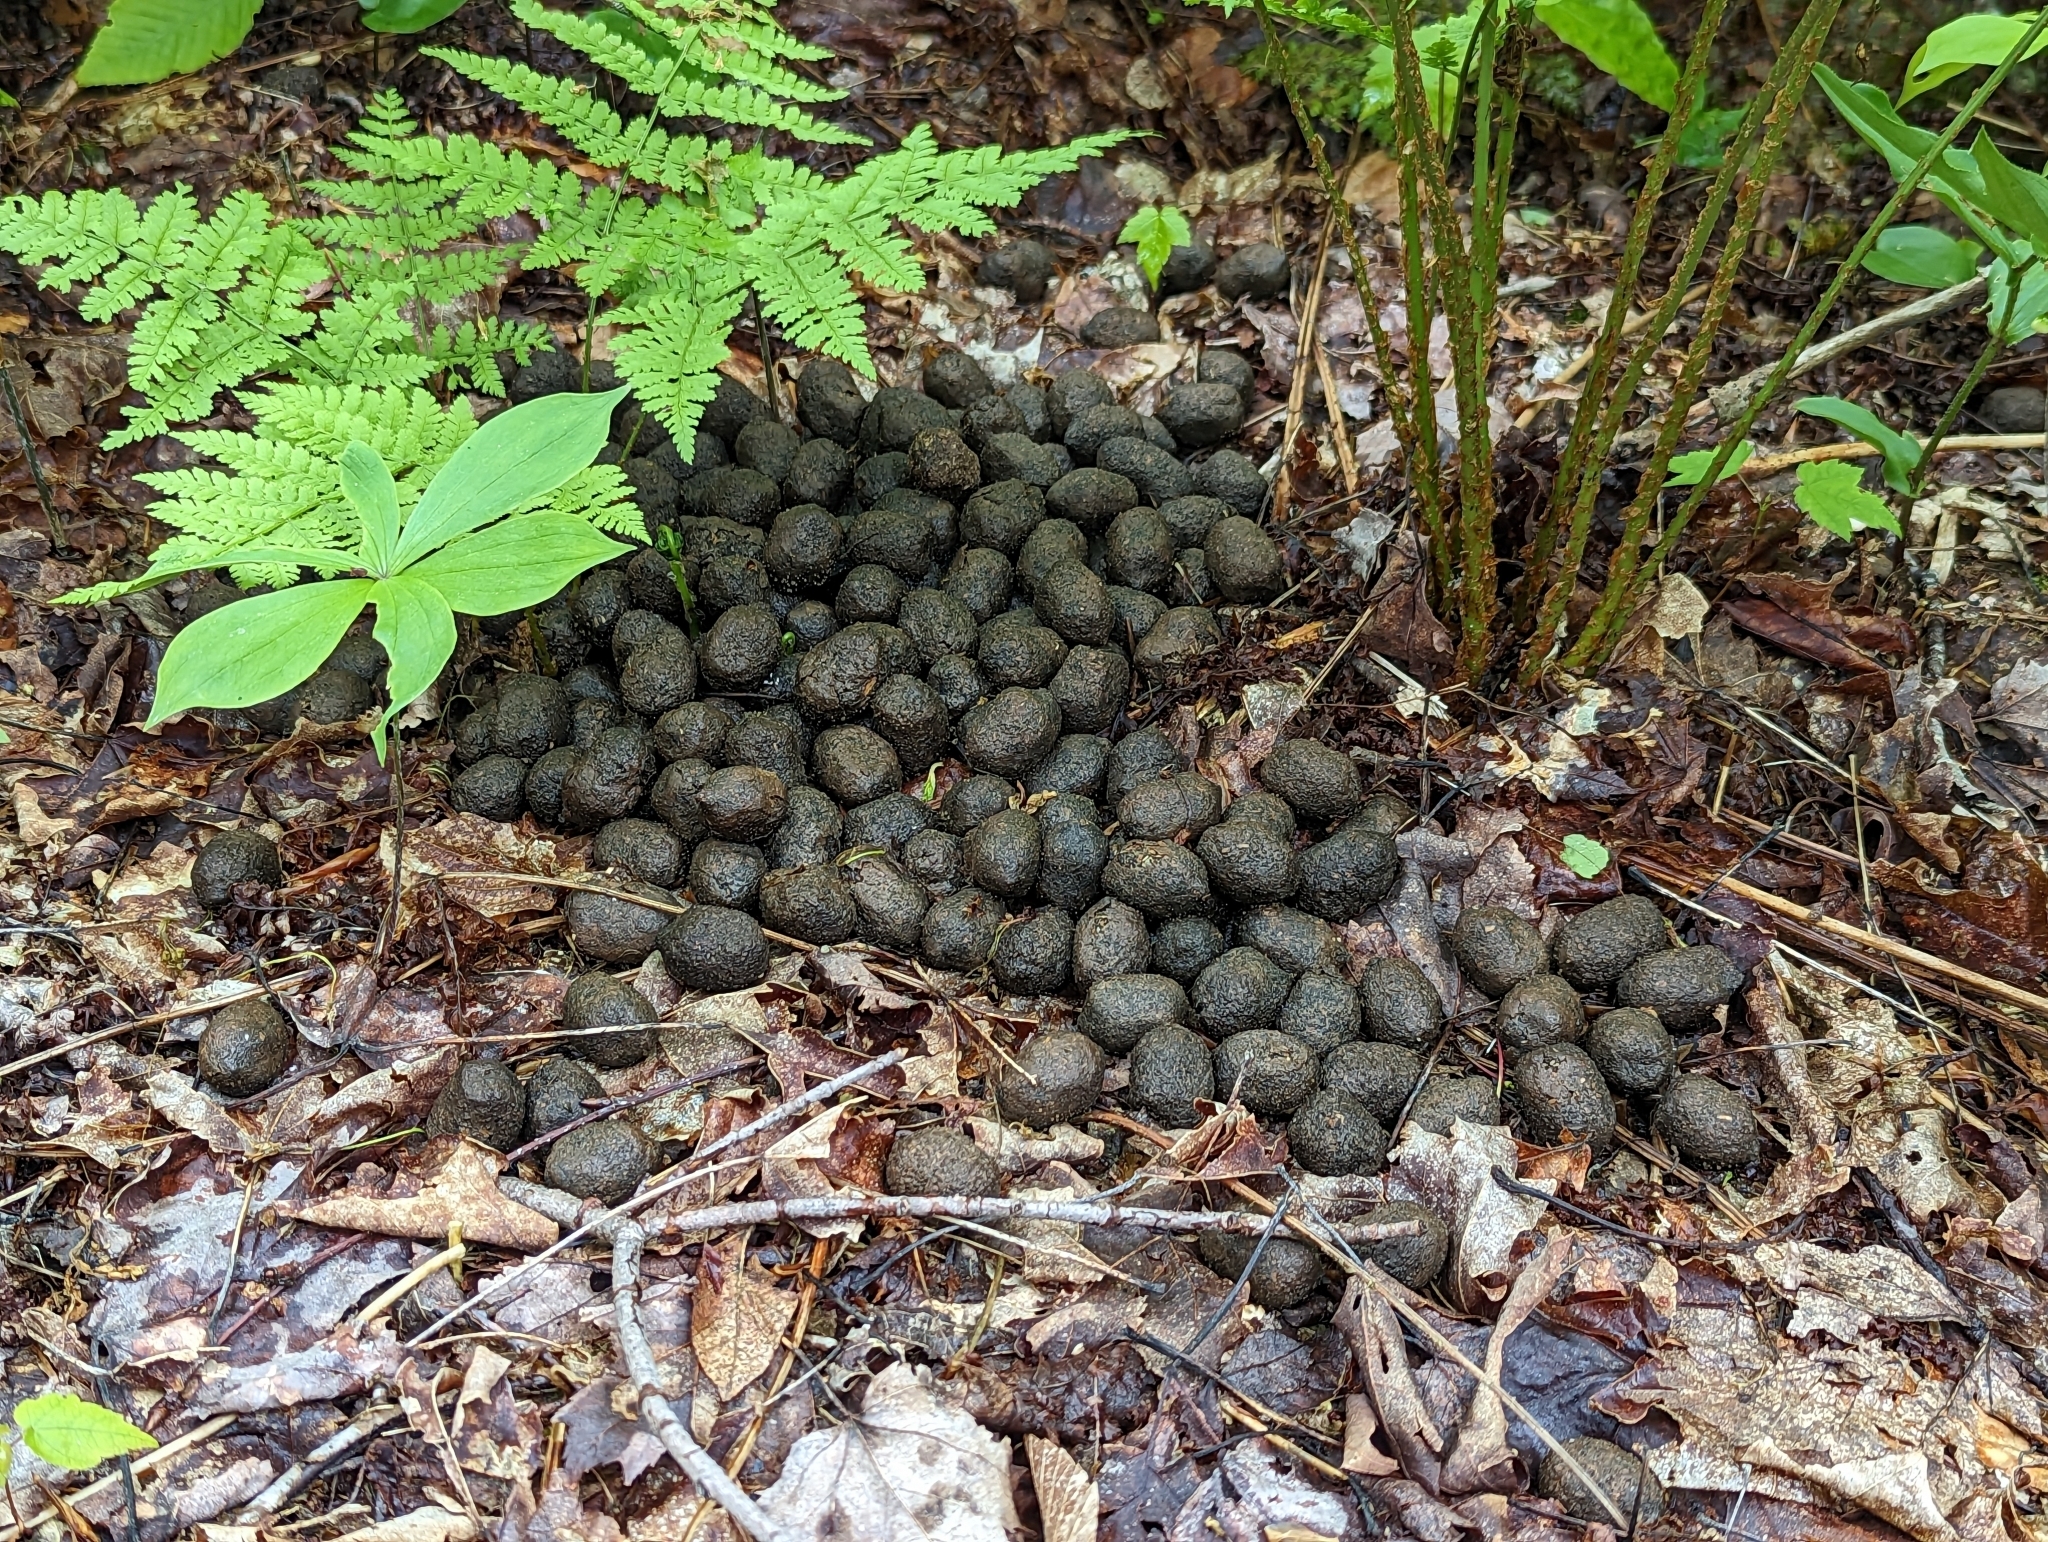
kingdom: Animalia
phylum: Chordata
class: Mammalia
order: Artiodactyla
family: Cervidae
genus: Alces
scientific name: Alces alces
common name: Moose
